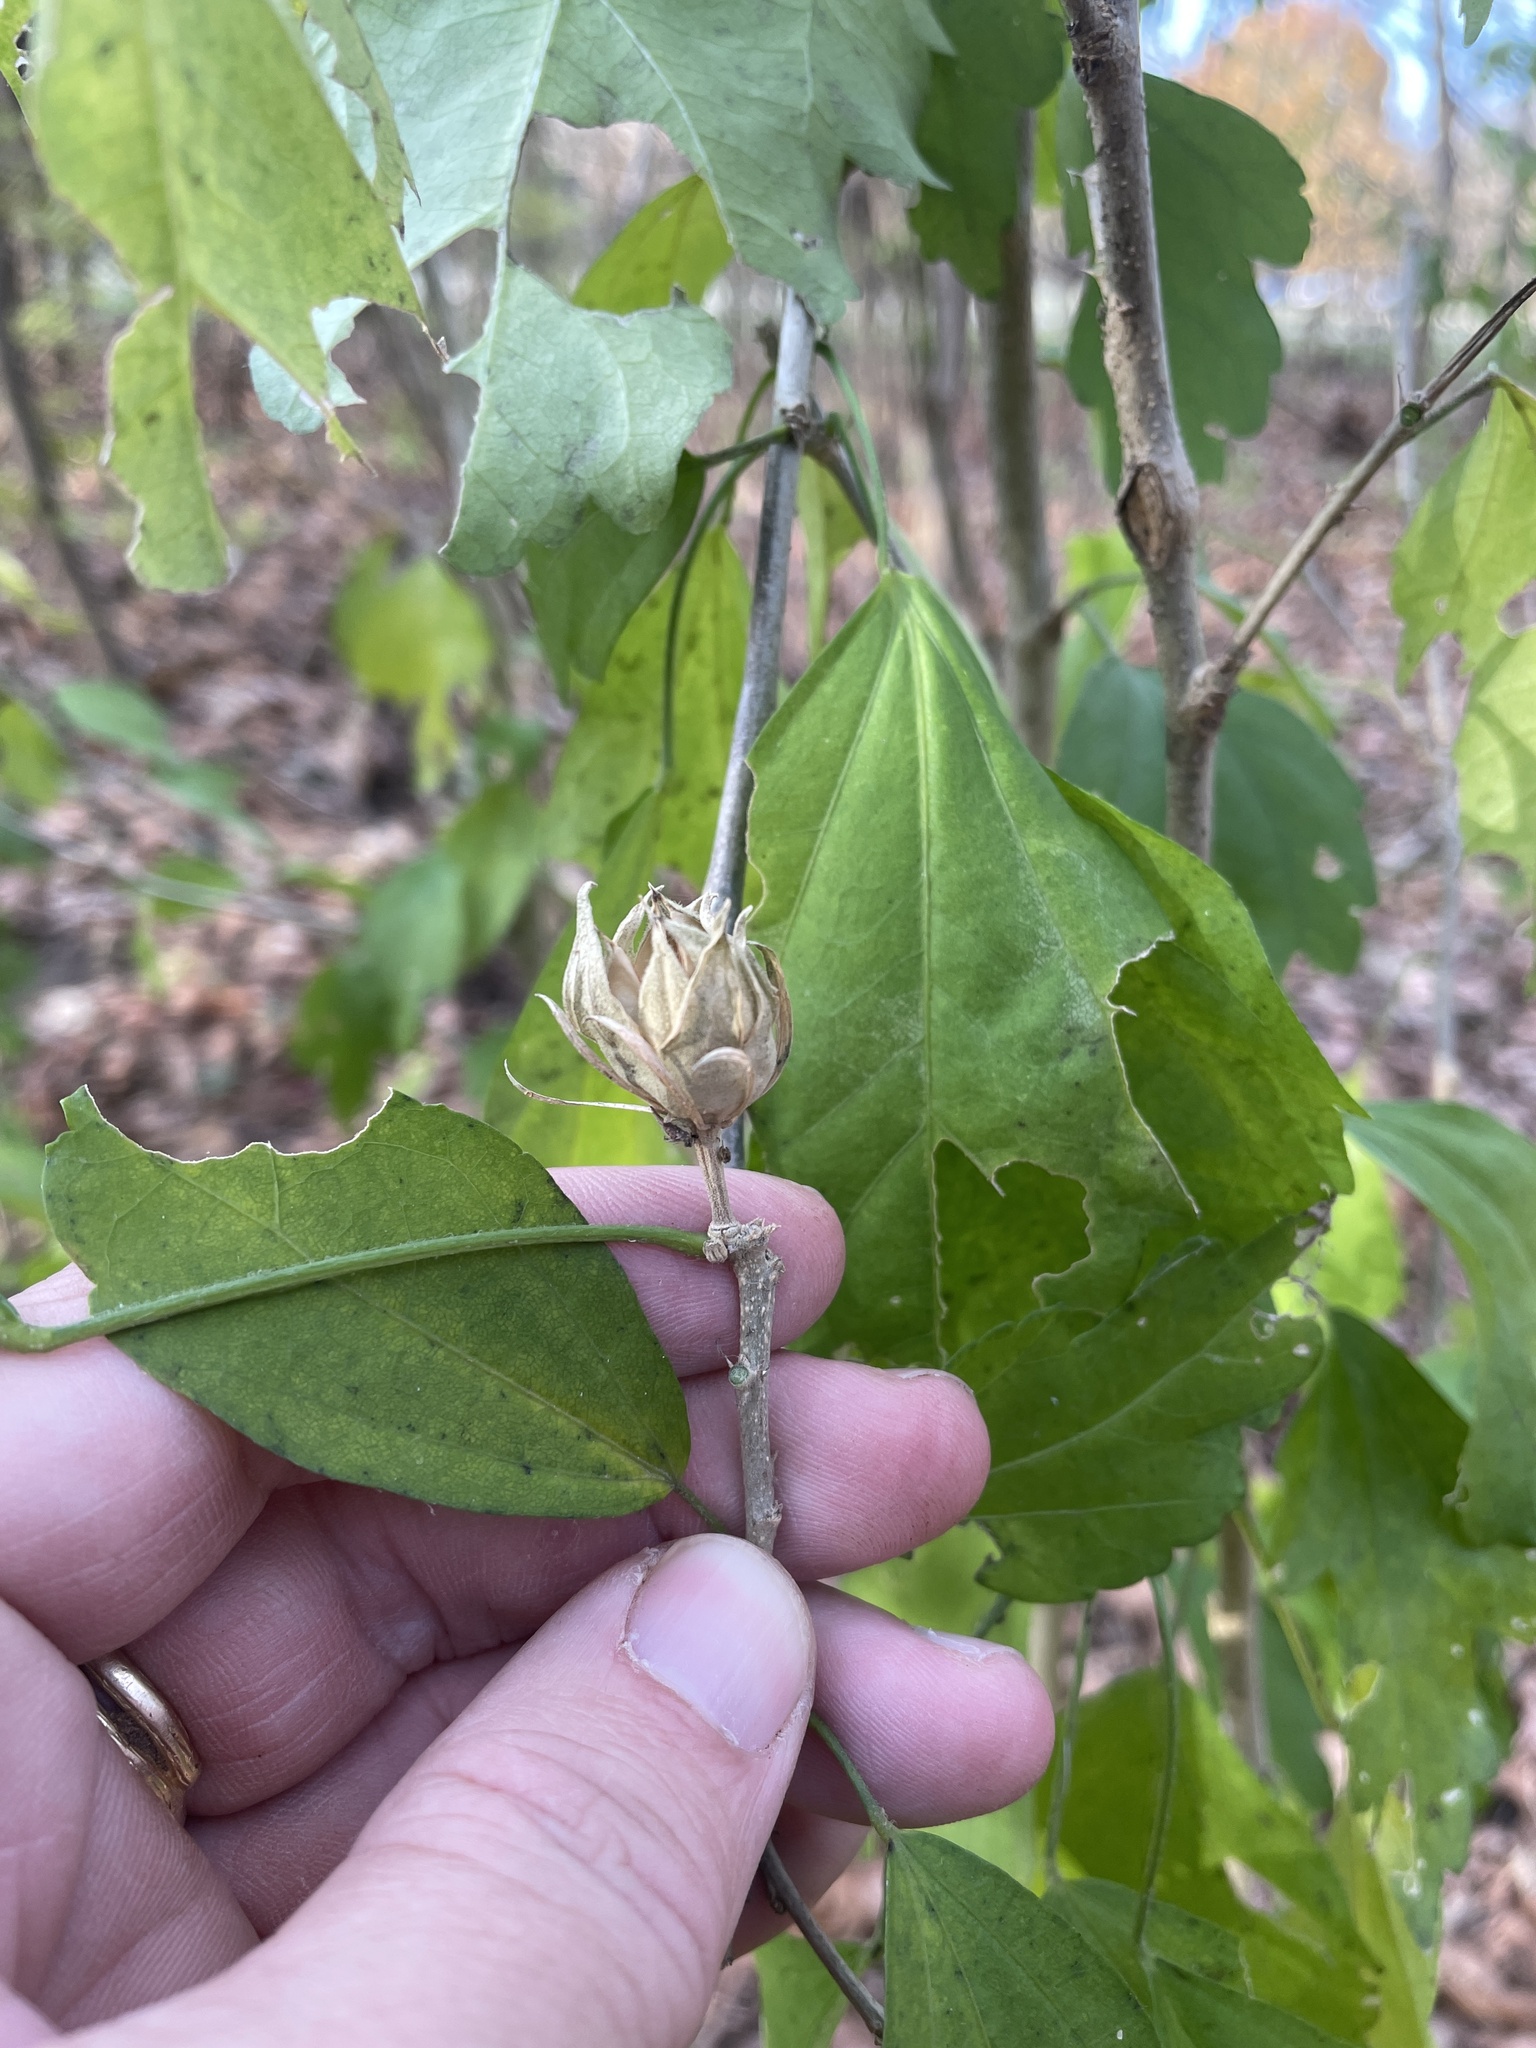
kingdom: Plantae
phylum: Tracheophyta
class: Magnoliopsida
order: Malvales
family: Malvaceae
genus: Hibiscus
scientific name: Hibiscus syriacus
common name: Syrian ketmia
